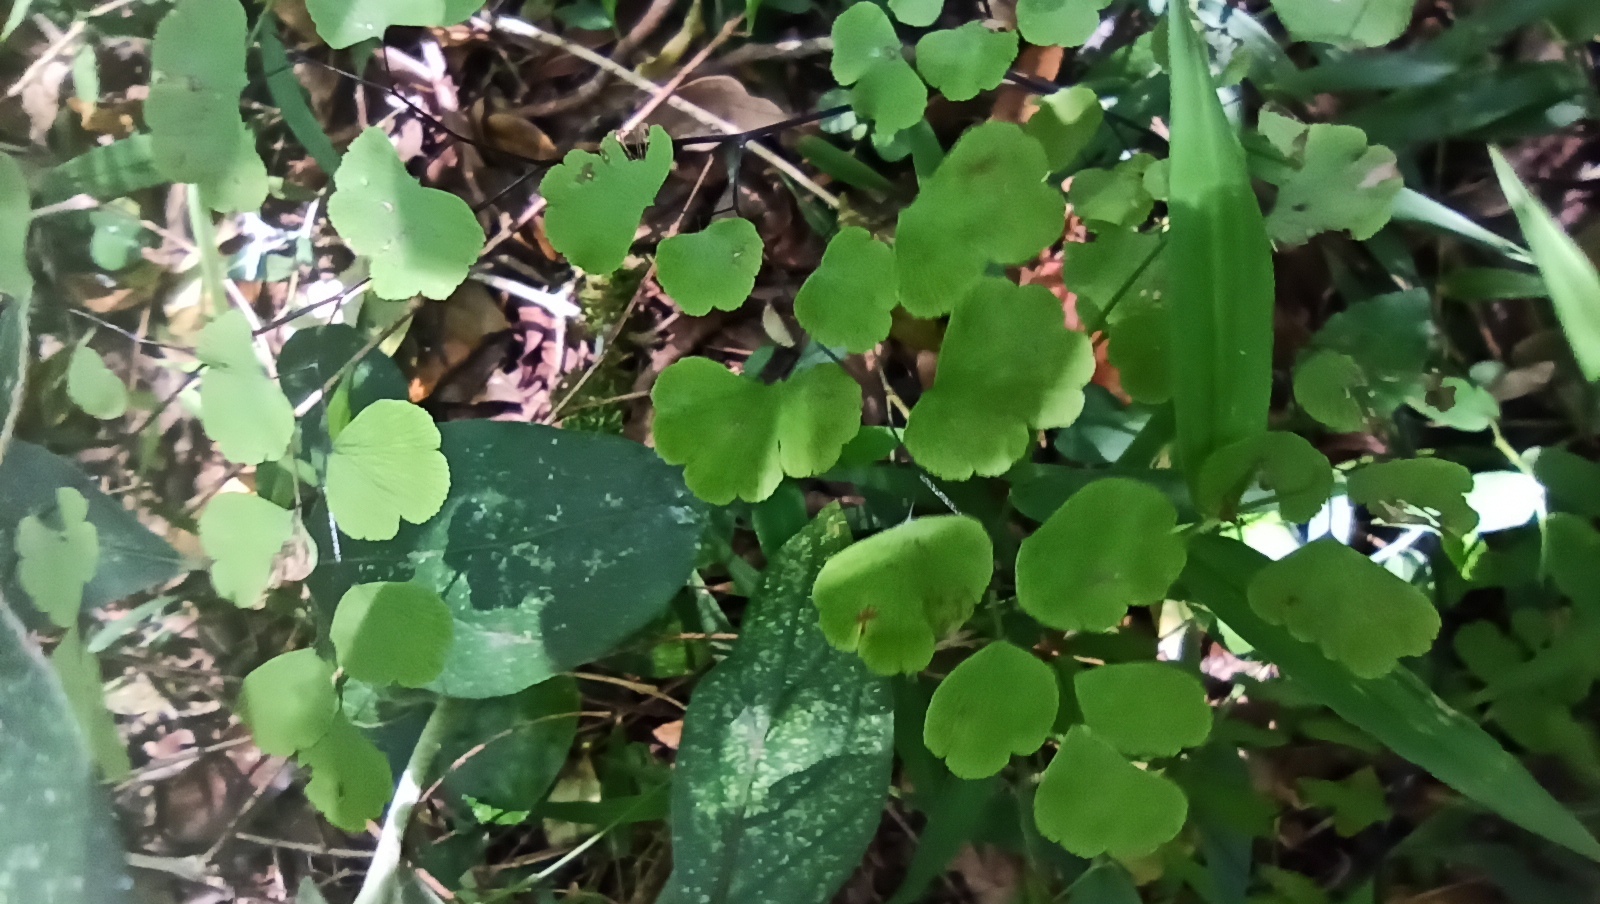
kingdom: Plantae
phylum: Tracheophyta
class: Polypodiopsida
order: Polypodiales
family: Pteridaceae
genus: Adiantum
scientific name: Adiantum poiretii
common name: Mexican maidenhair
